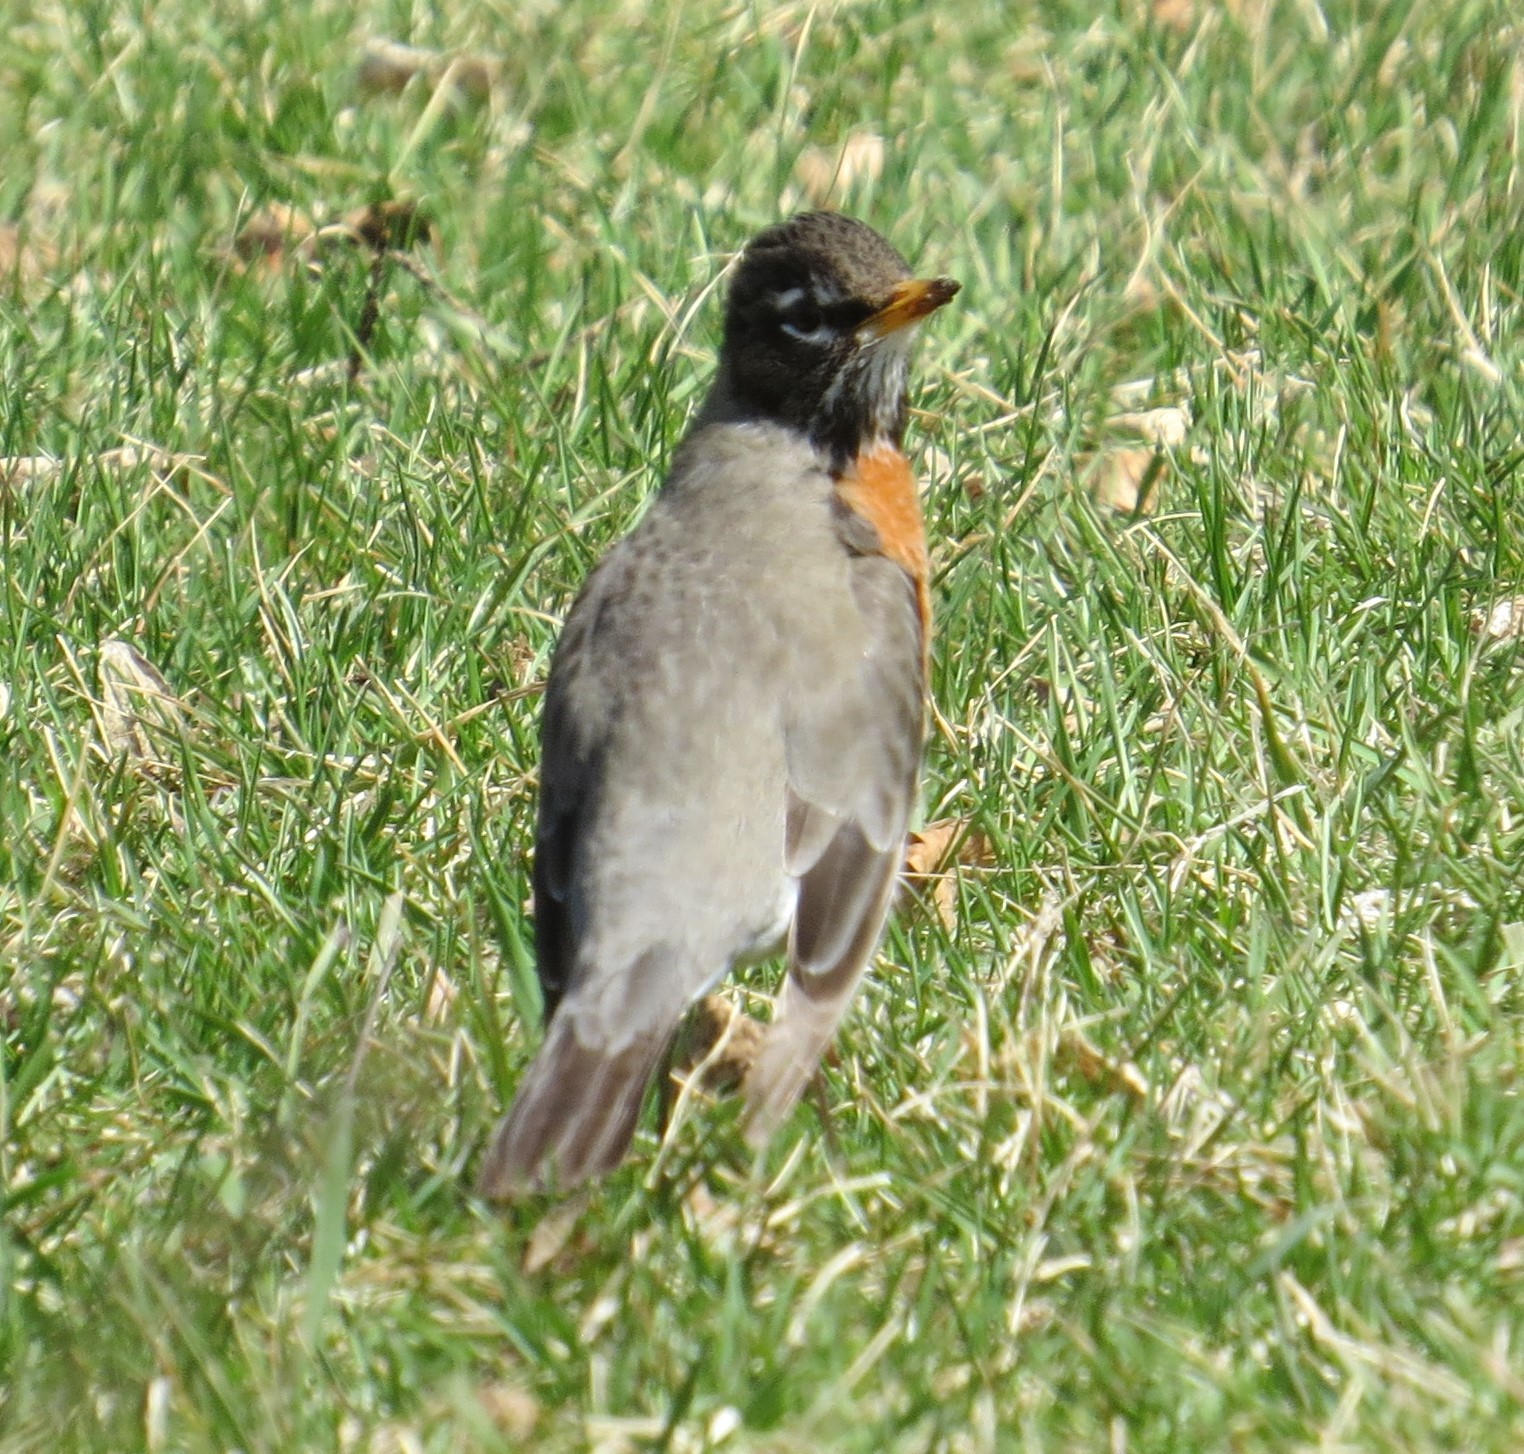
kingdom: Animalia
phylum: Chordata
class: Aves
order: Passeriformes
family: Turdidae
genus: Turdus
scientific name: Turdus migratorius
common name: American robin
